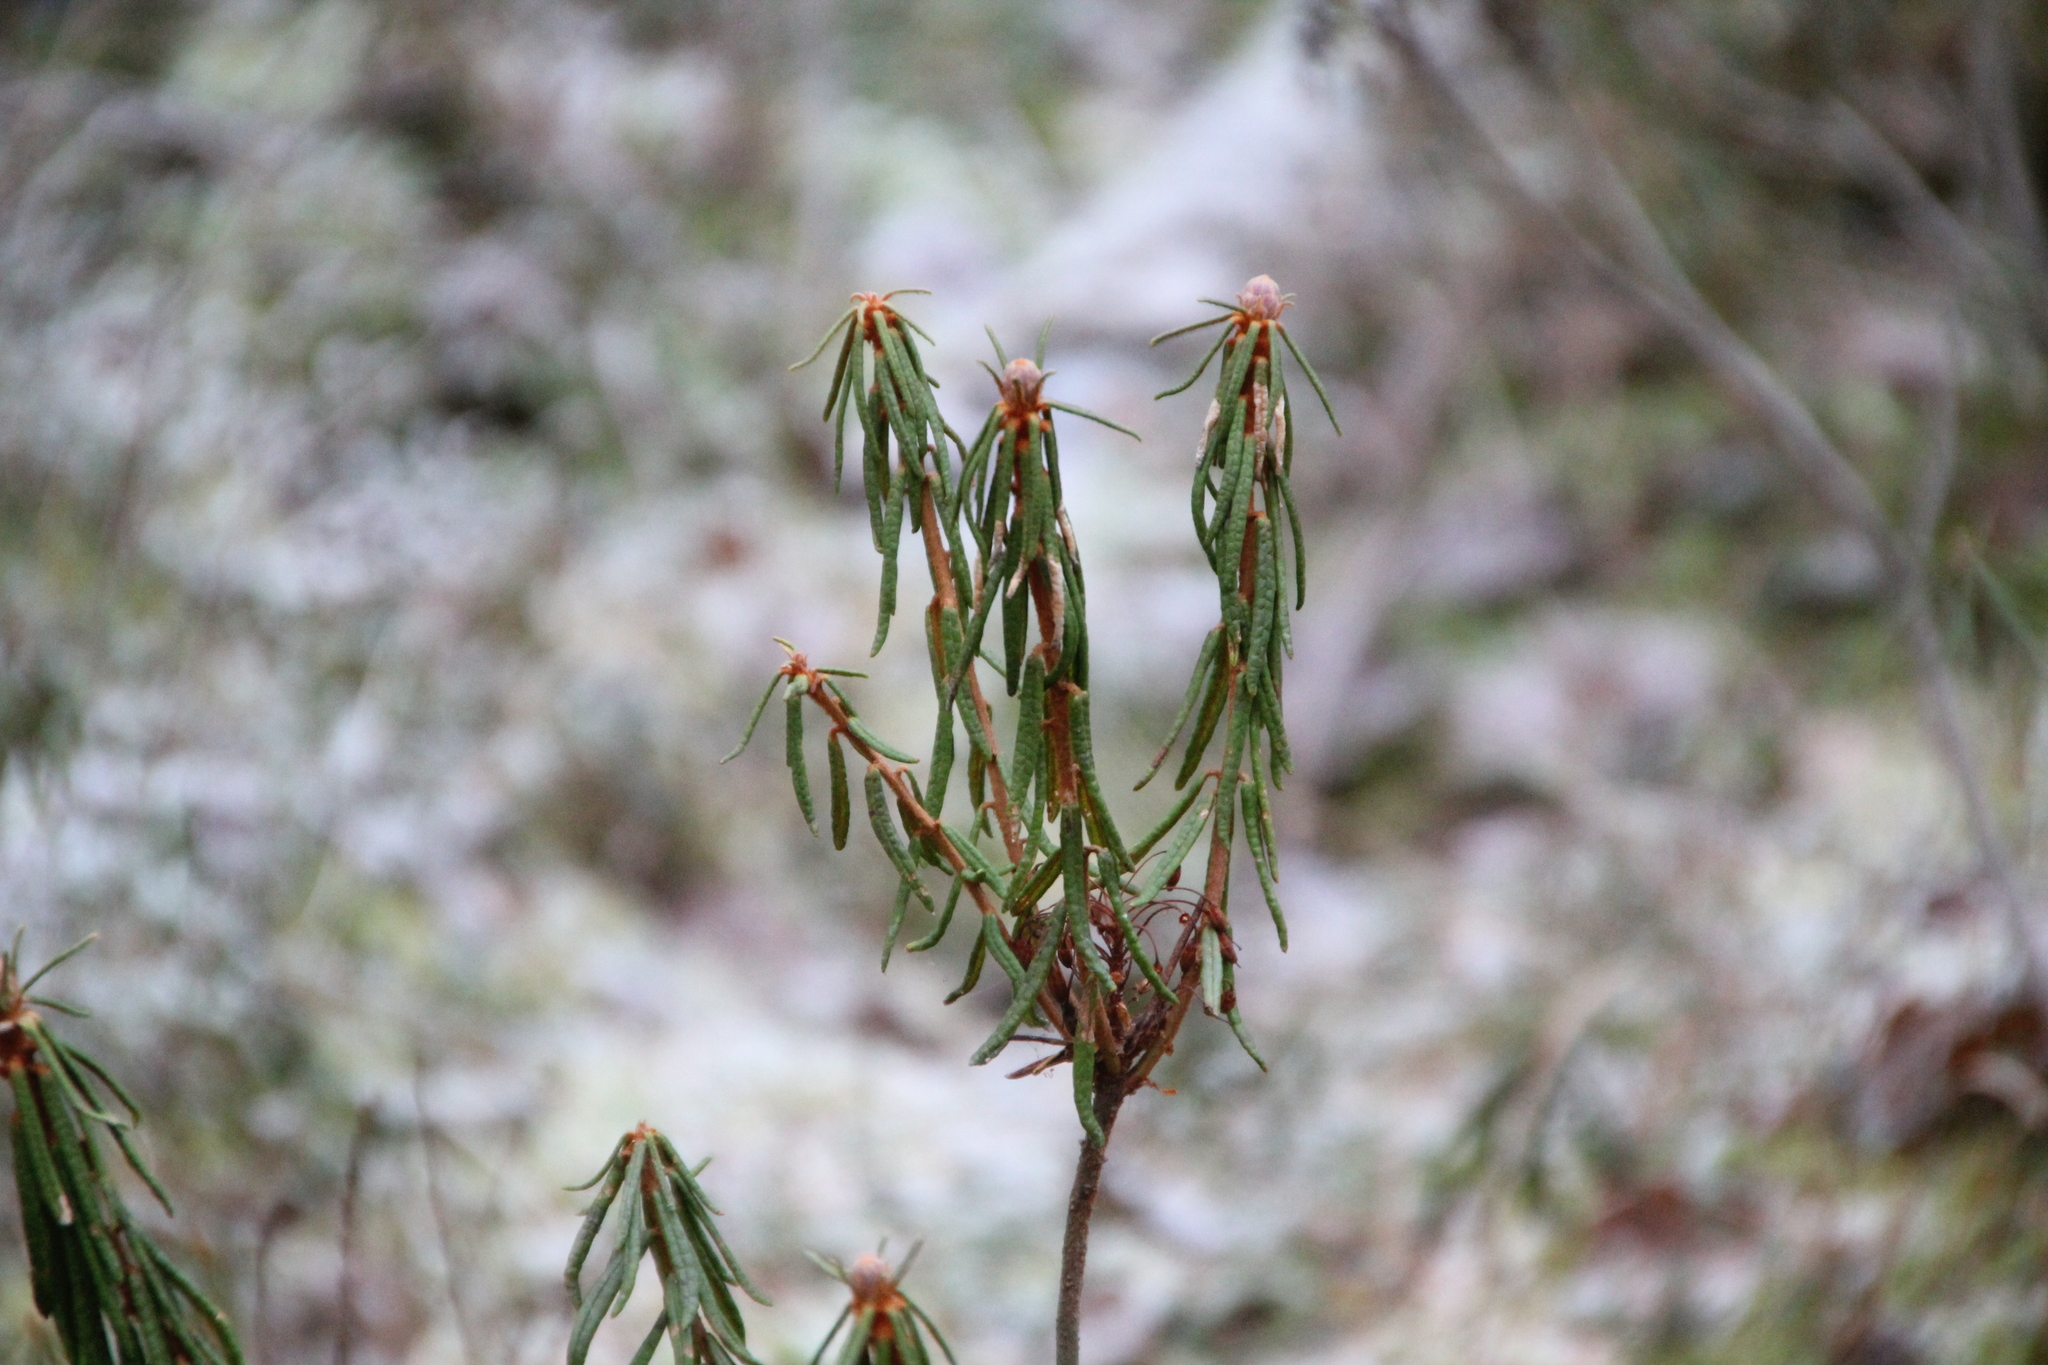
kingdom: Plantae
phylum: Tracheophyta
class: Magnoliopsida
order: Ericales
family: Ericaceae
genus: Rhododendron
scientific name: Rhododendron tomentosum
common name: Marsh labrador tea
